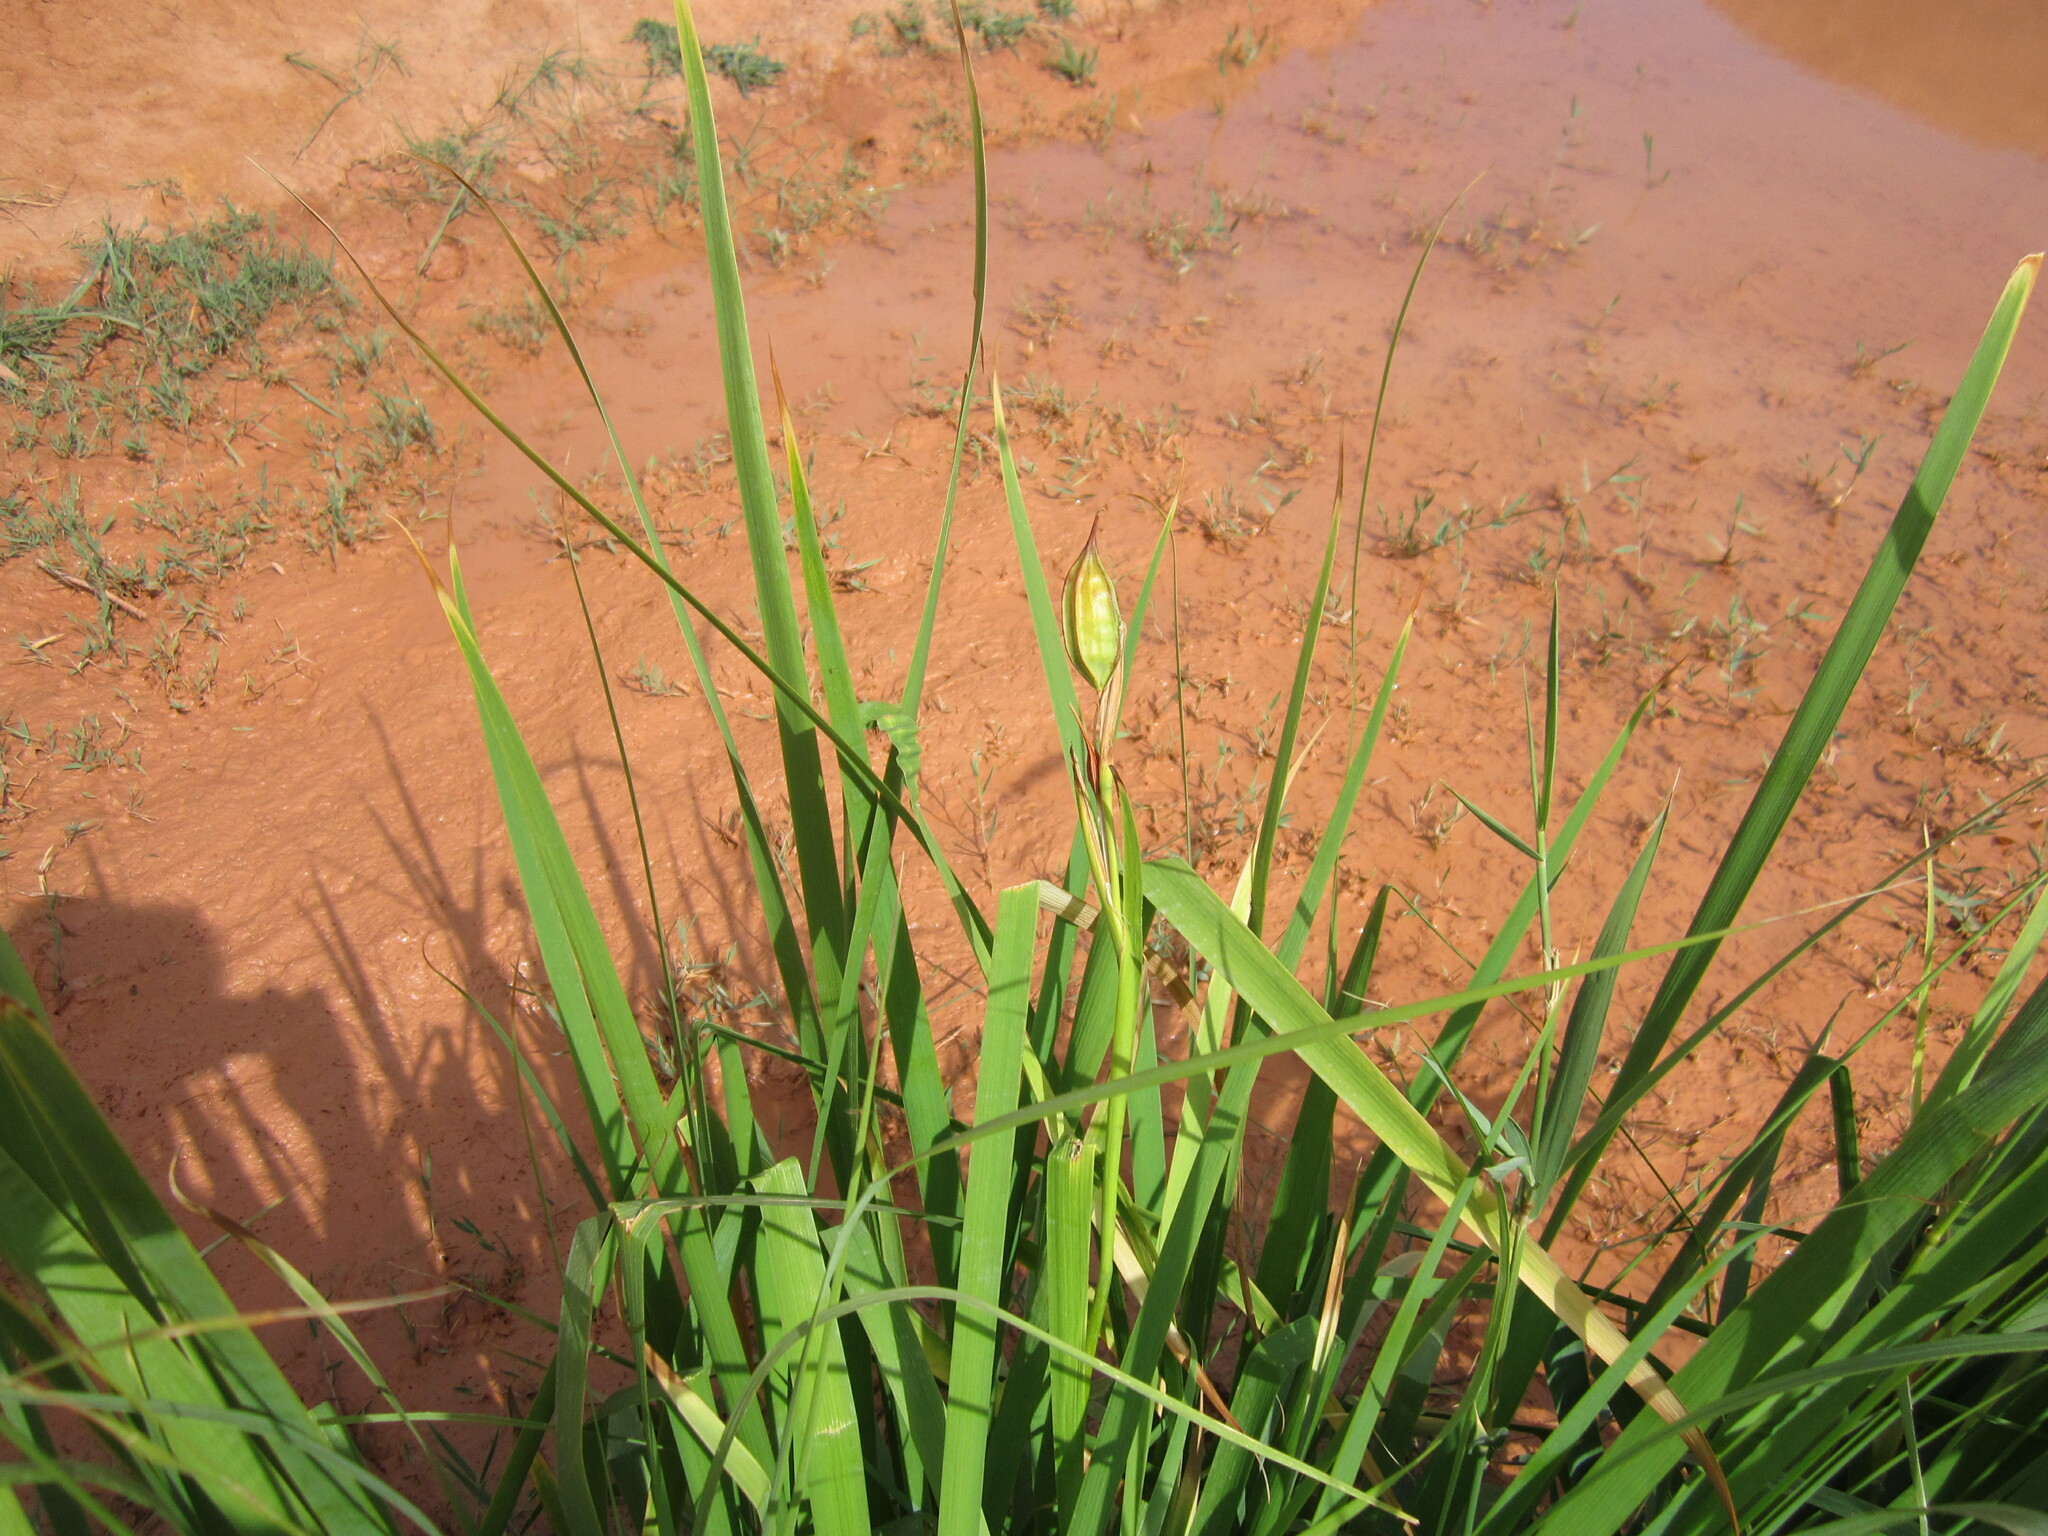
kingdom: Plantae
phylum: Tracheophyta
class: Liliopsida
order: Asparagales
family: Iridaceae
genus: Iris
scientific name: Iris halophila
